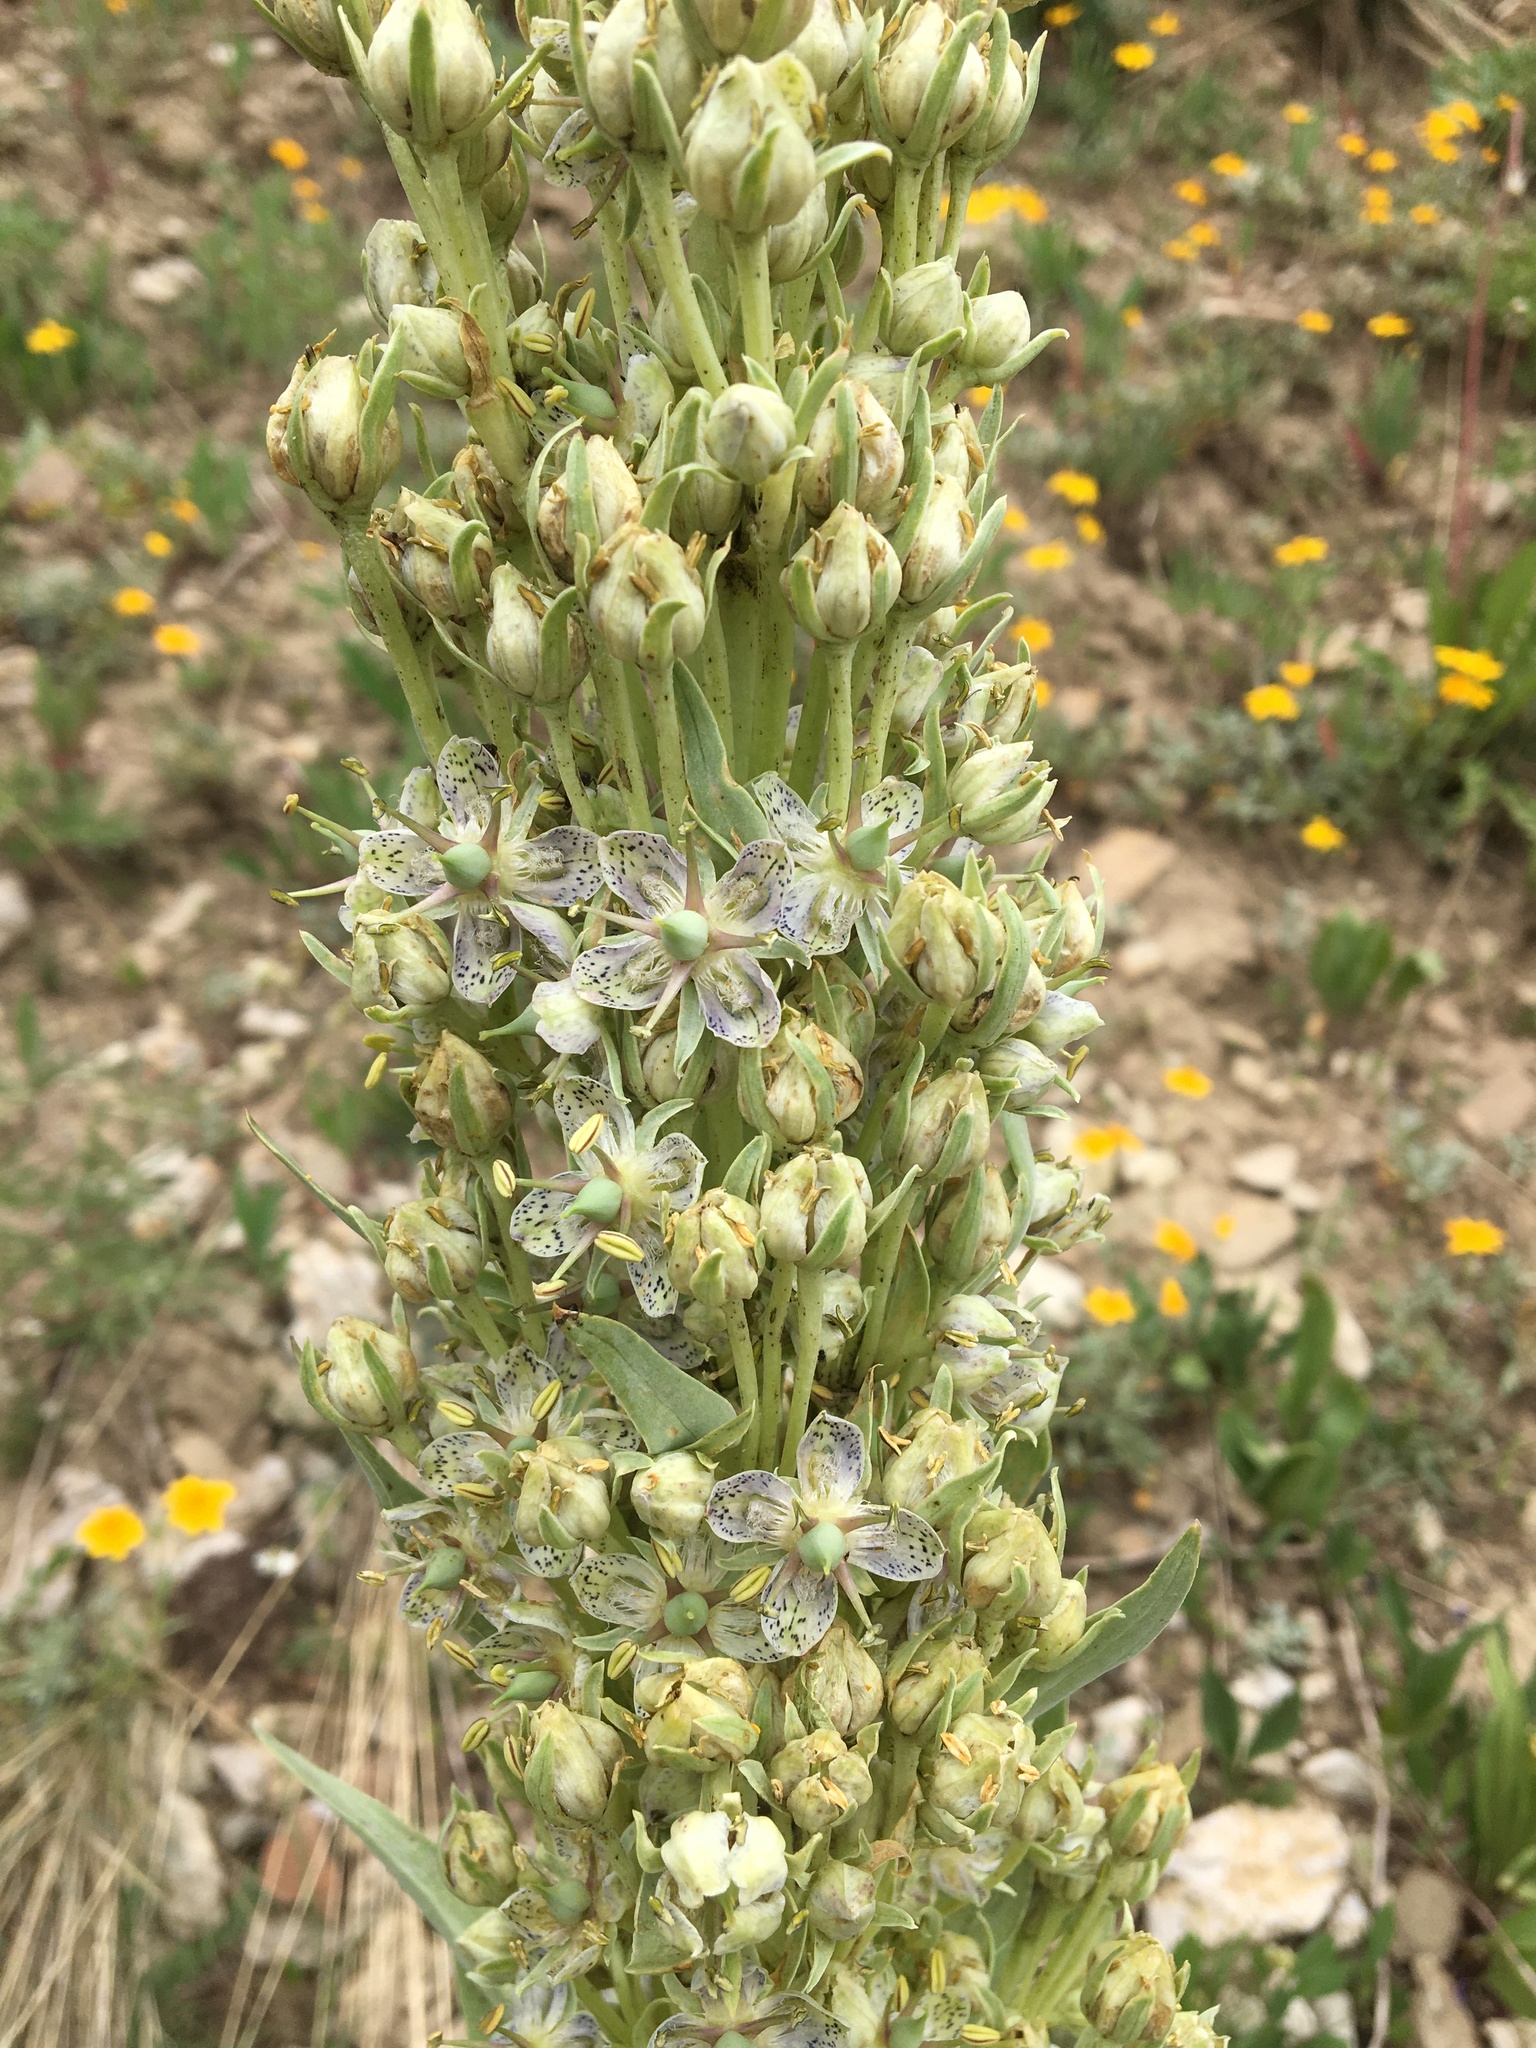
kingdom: Plantae
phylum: Tracheophyta
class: Magnoliopsida
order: Gentianales
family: Gentianaceae
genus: Frasera
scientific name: Frasera speciosa
